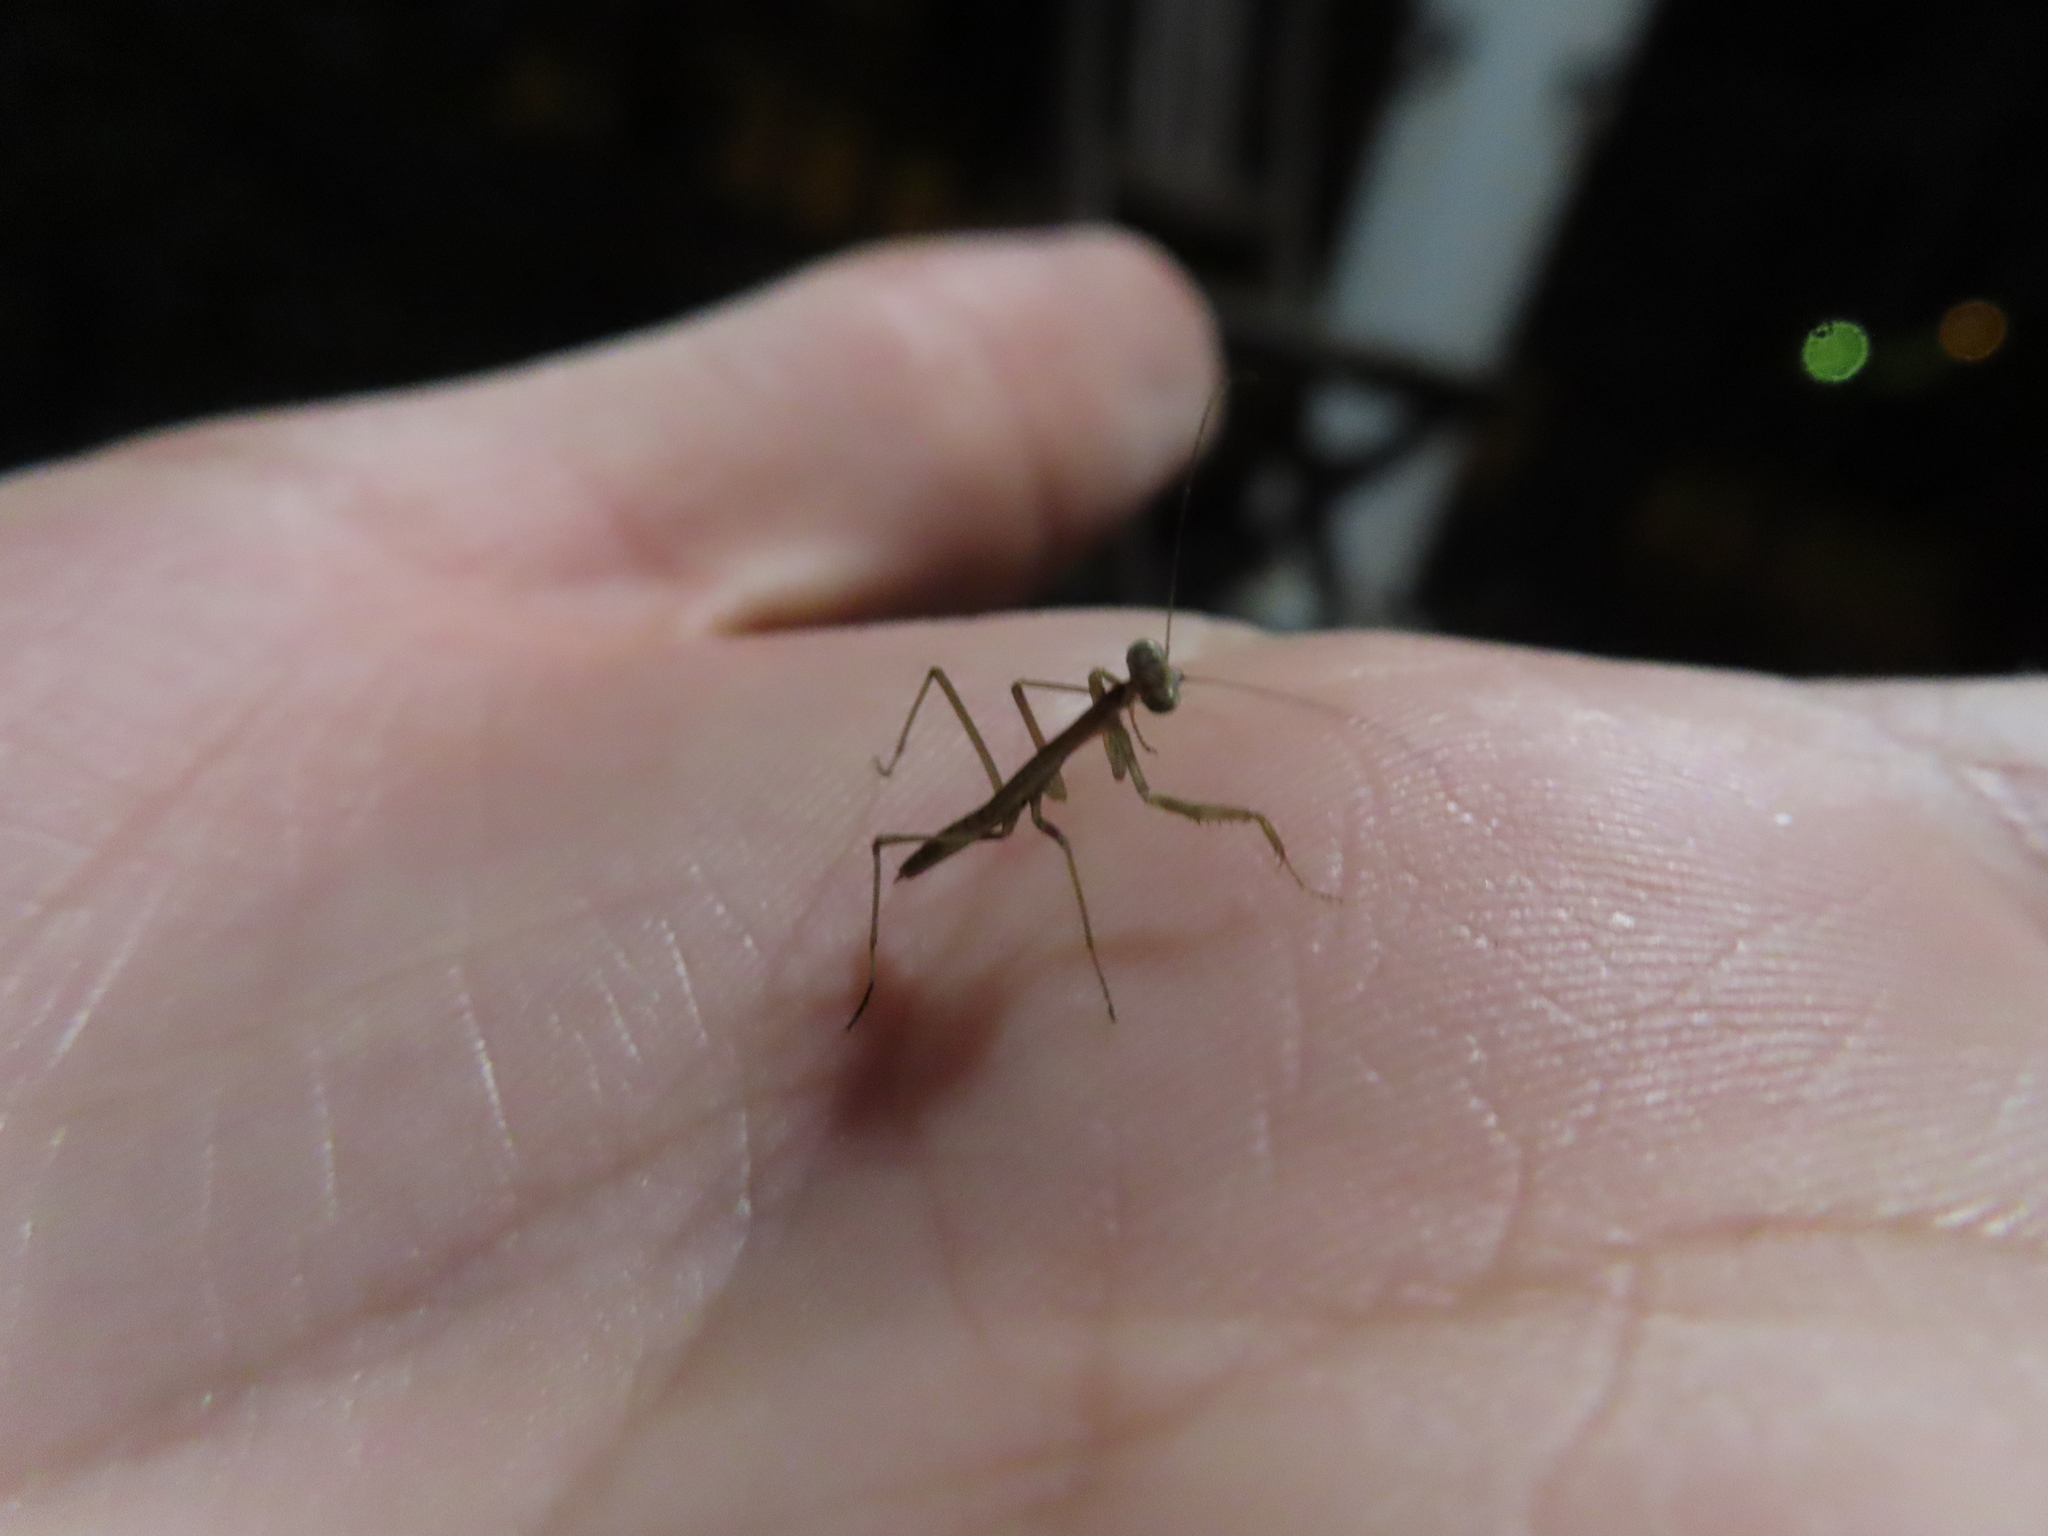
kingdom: Animalia
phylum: Arthropoda
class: Insecta
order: Mantodea
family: Mantidae
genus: Tenodera
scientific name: Tenodera sinensis
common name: Chinese mantis
